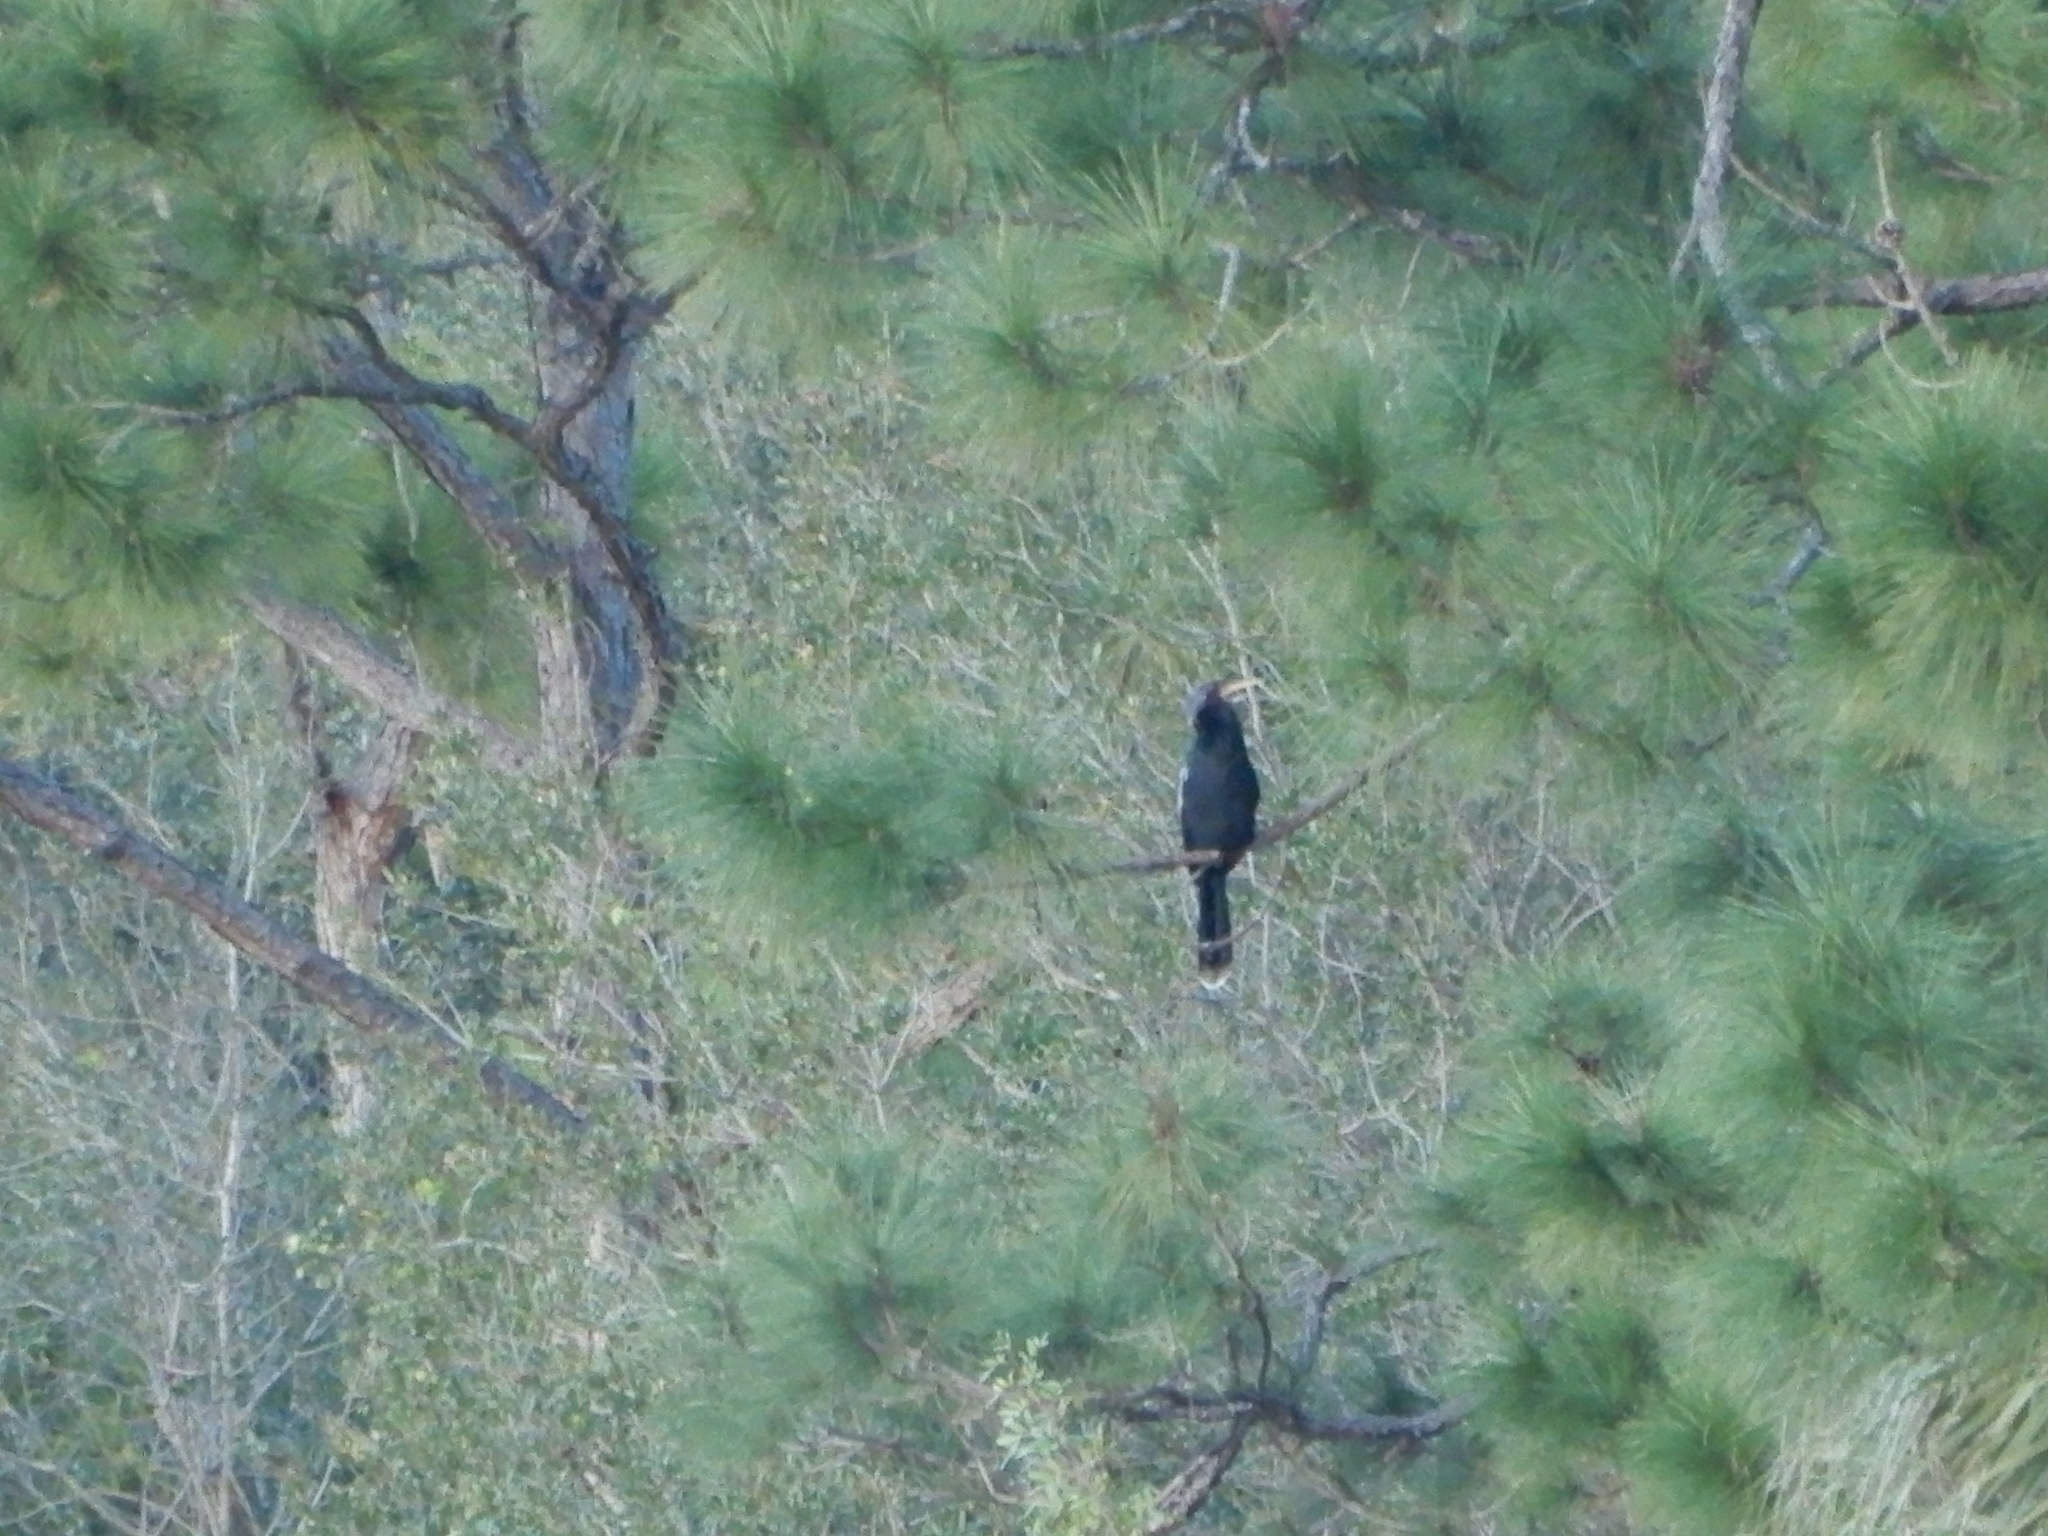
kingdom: Animalia
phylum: Chordata
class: Aves
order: Suliformes
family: Anhingidae
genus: Anhinga
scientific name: Anhinga anhinga
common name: Anhinga
